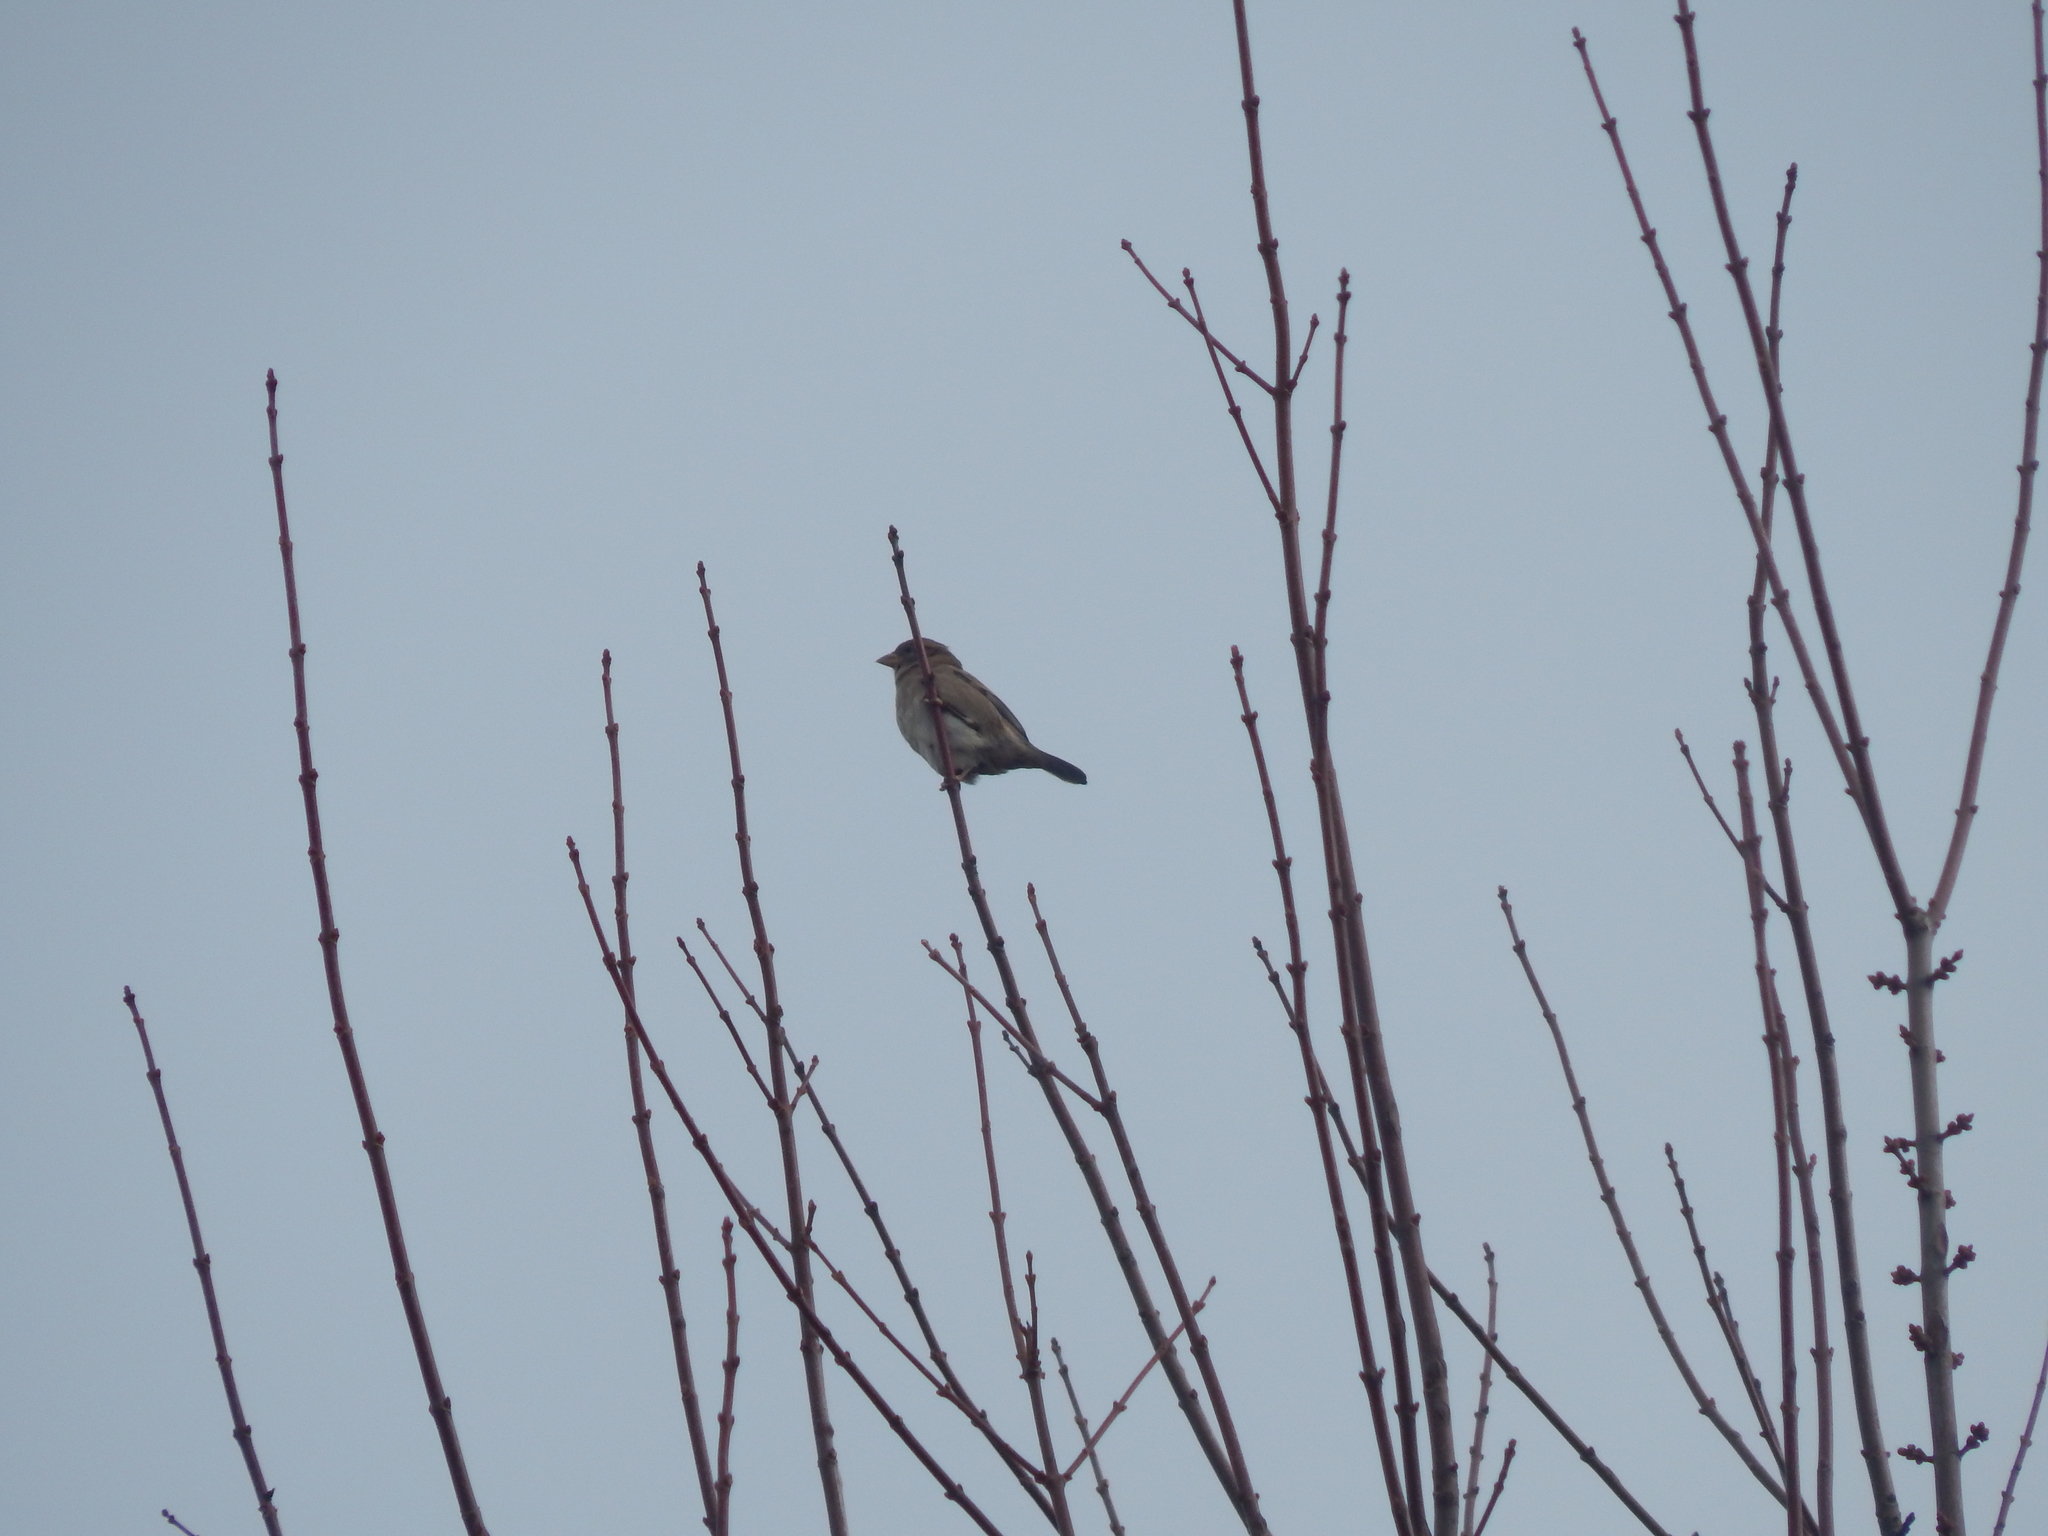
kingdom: Animalia
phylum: Chordata
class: Aves
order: Passeriformes
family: Passeridae
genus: Passer
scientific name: Passer domesticus
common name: House sparrow
